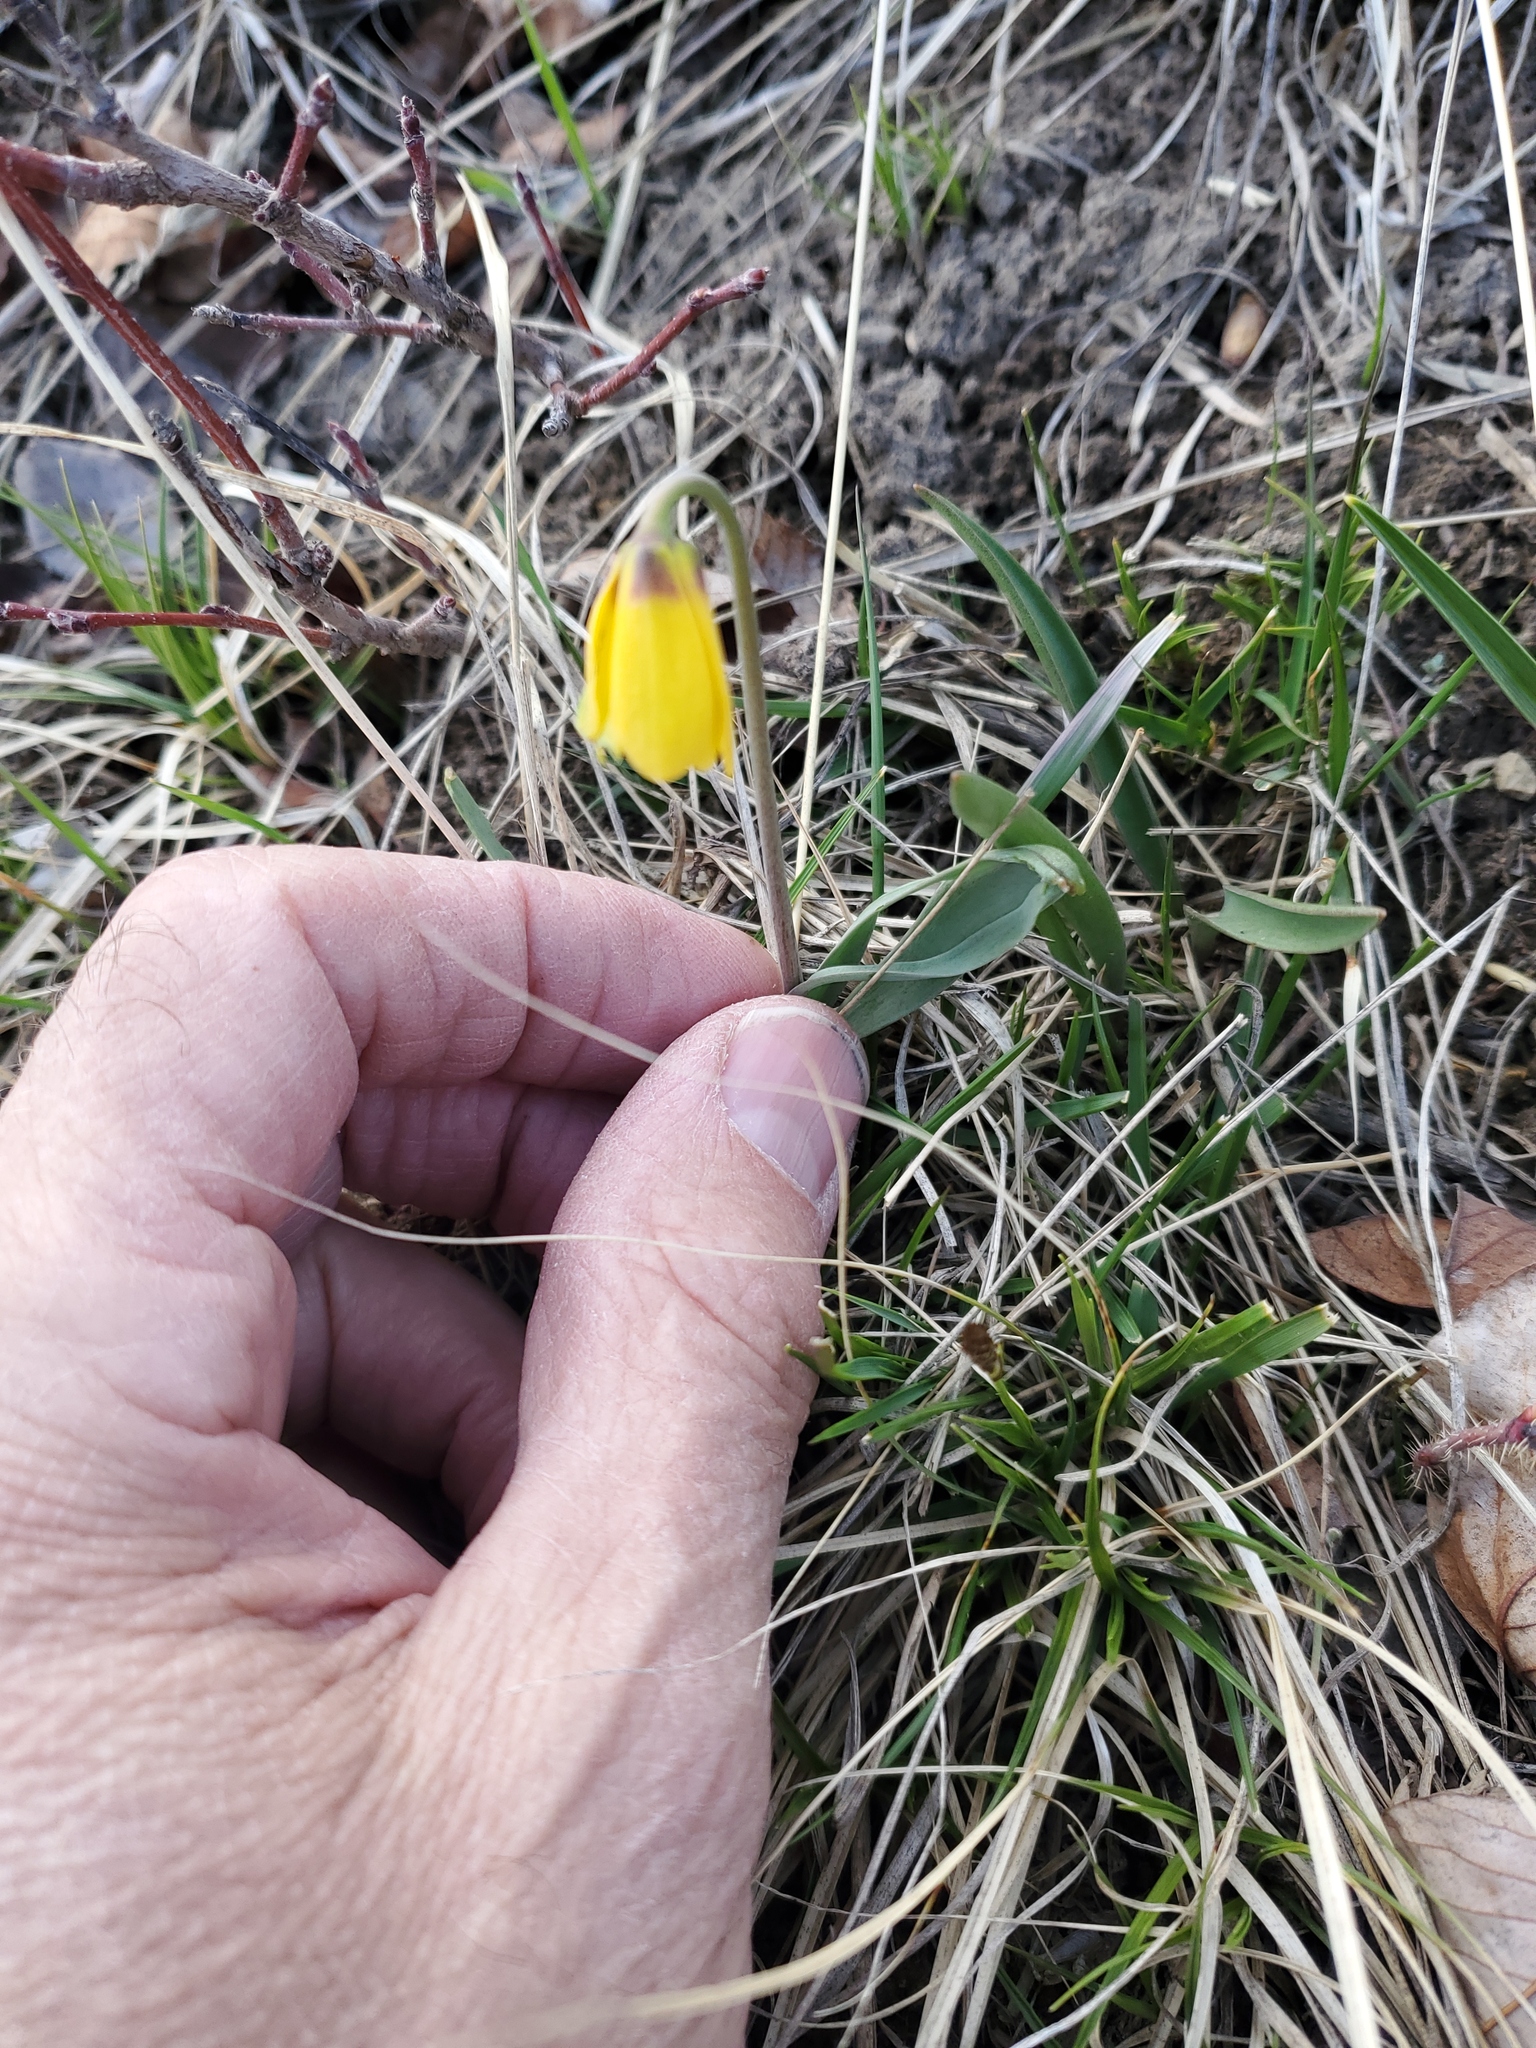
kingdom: Plantae
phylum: Tracheophyta
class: Liliopsida
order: Liliales
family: Liliaceae
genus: Fritillaria
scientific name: Fritillaria pudica
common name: Yellow fritillary
